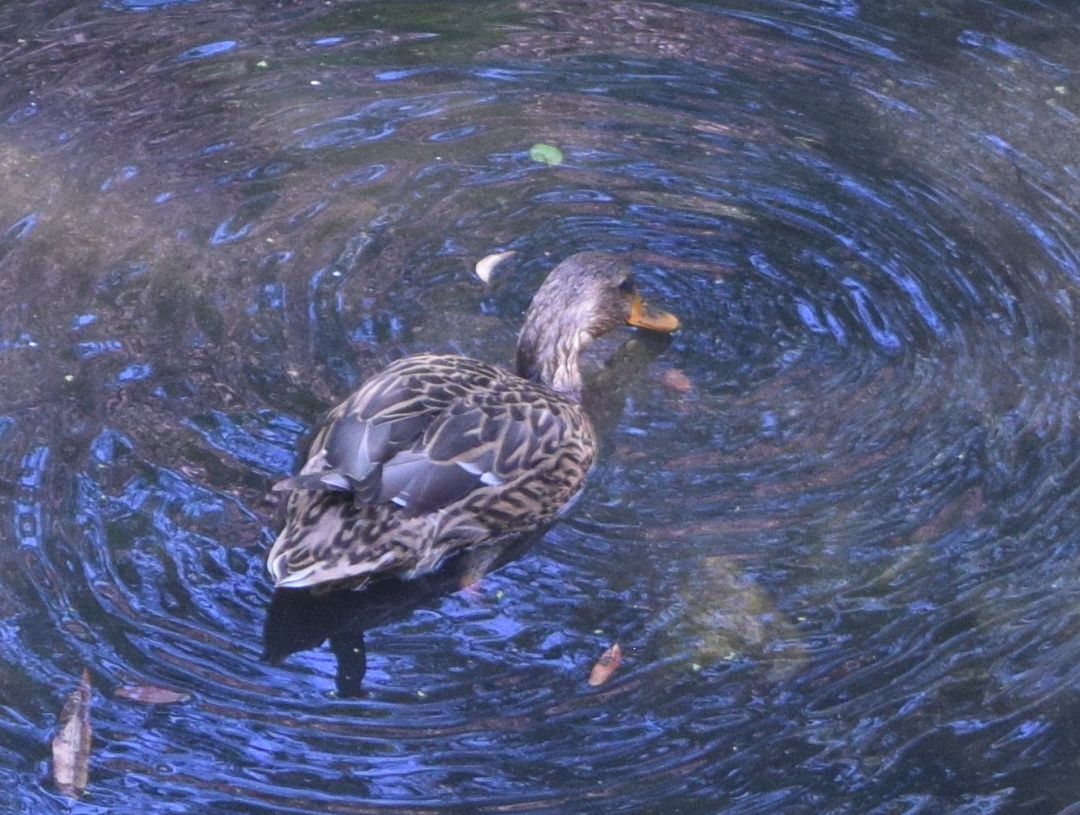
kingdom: Animalia
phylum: Chordata
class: Aves
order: Anseriformes
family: Anatidae
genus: Anas
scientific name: Anas platyrhynchos
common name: Mallard
